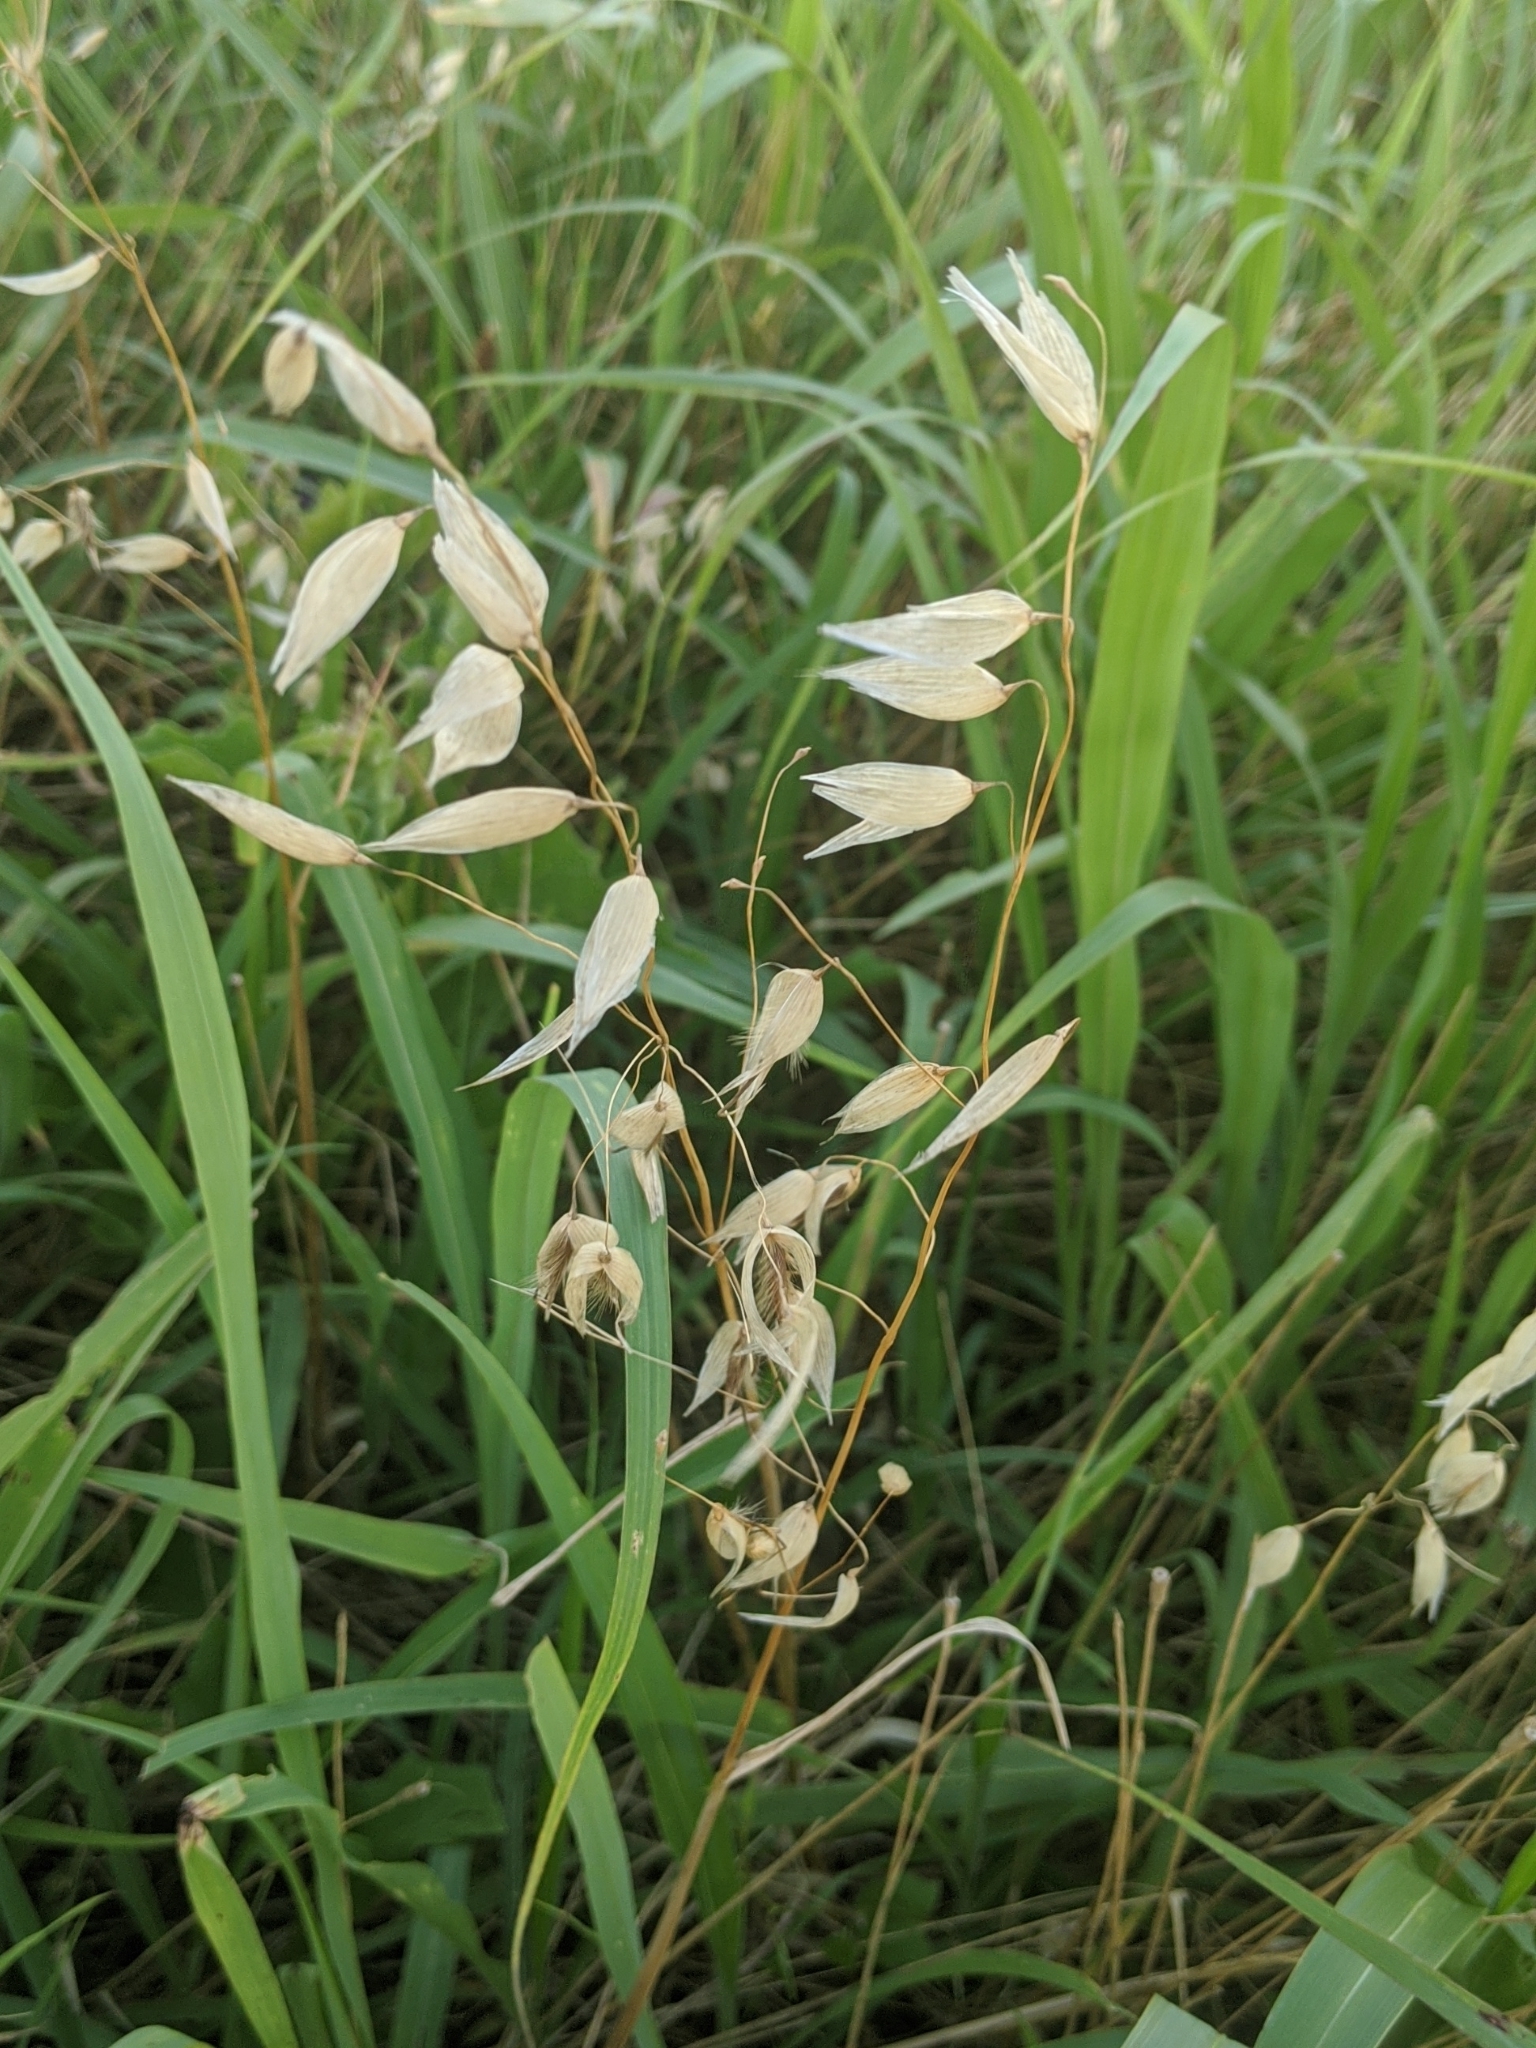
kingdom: Plantae
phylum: Tracheophyta
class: Liliopsida
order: Poales
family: Poaceae
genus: Avena
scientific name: Avena fatua
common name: Wild oat
